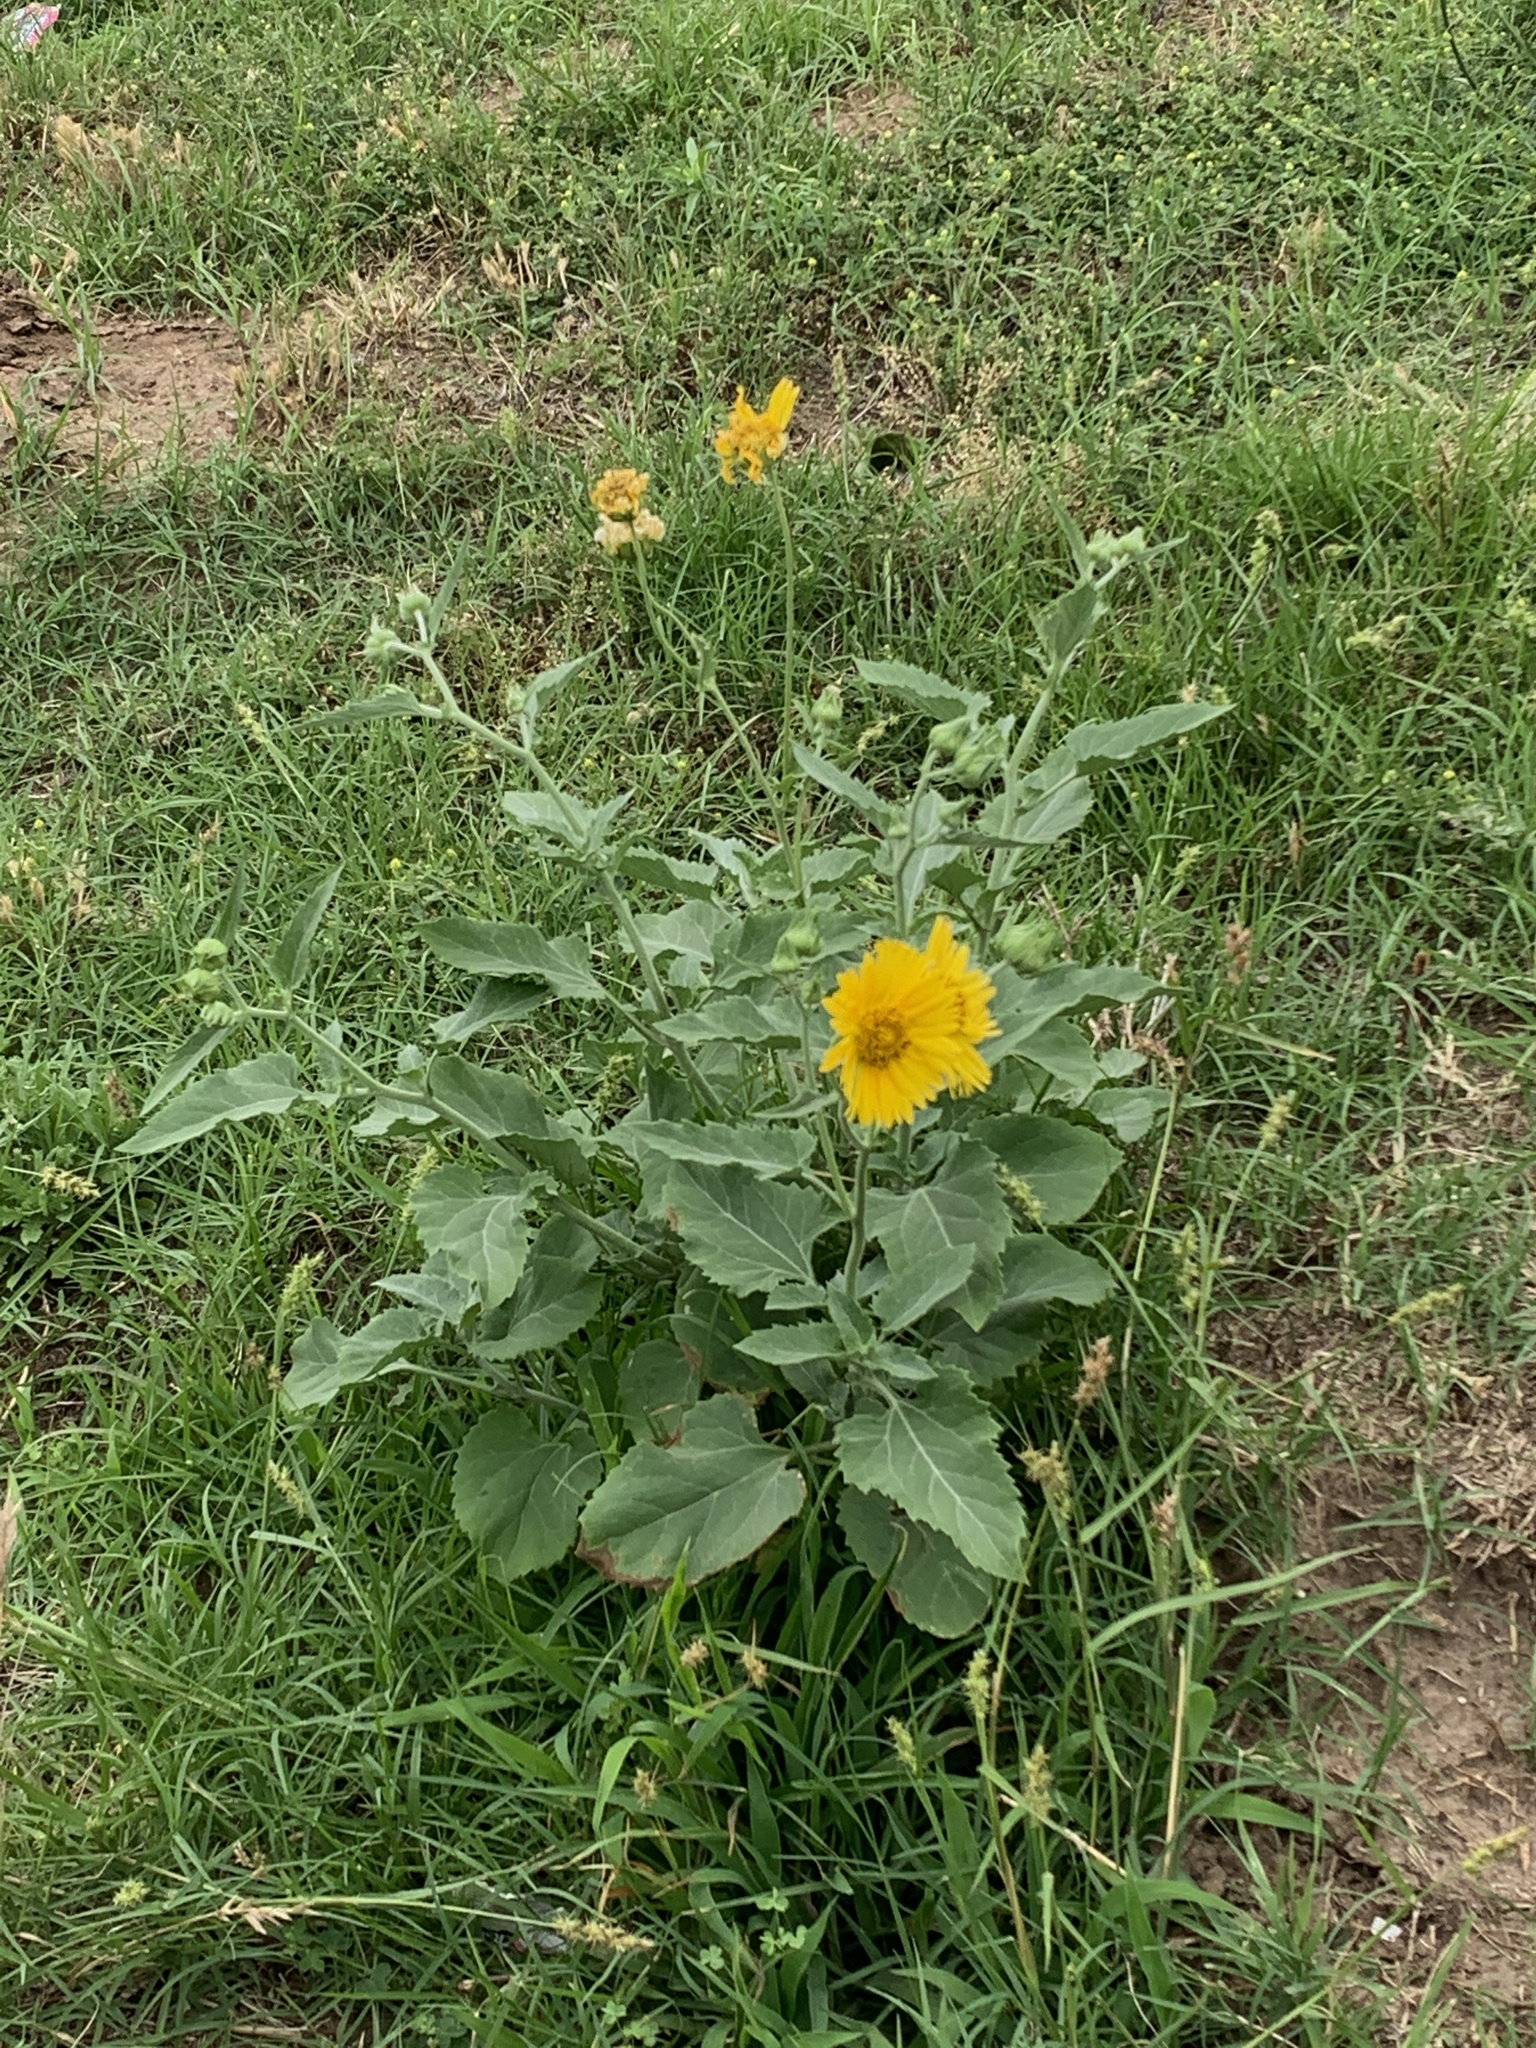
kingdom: Plantae
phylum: Tracheophyta
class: Magnoliopsida
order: Asterales
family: Asteraceae
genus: Verbesina
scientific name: Verbesina encelioides
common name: Golden crownbeard
